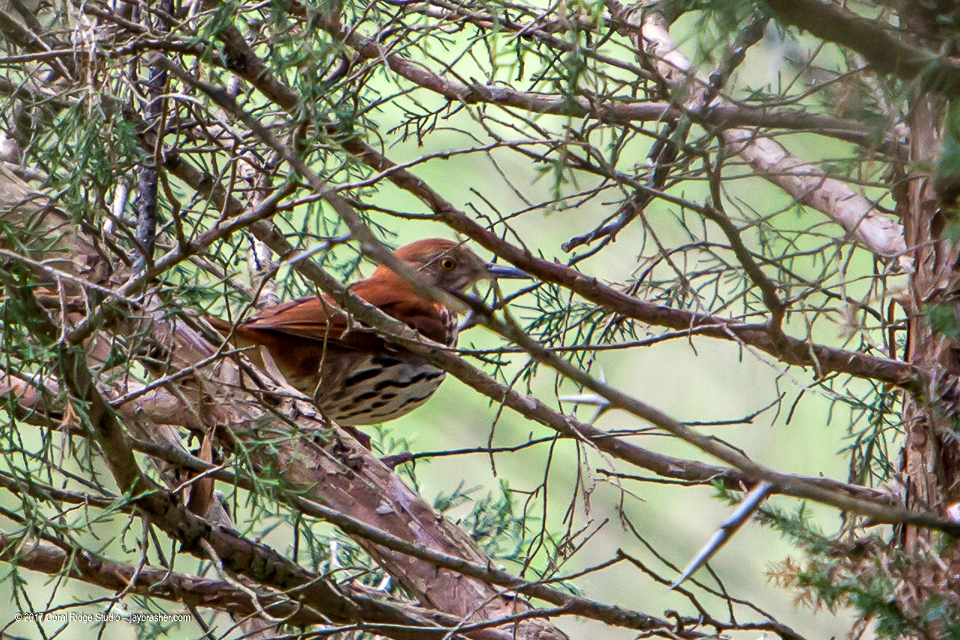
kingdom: Animalia
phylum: Chordata
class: Aves
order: Passeriformes
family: Mimidae
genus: Toxostoma
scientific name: Toxostoma rufum
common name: Brown thrasher
